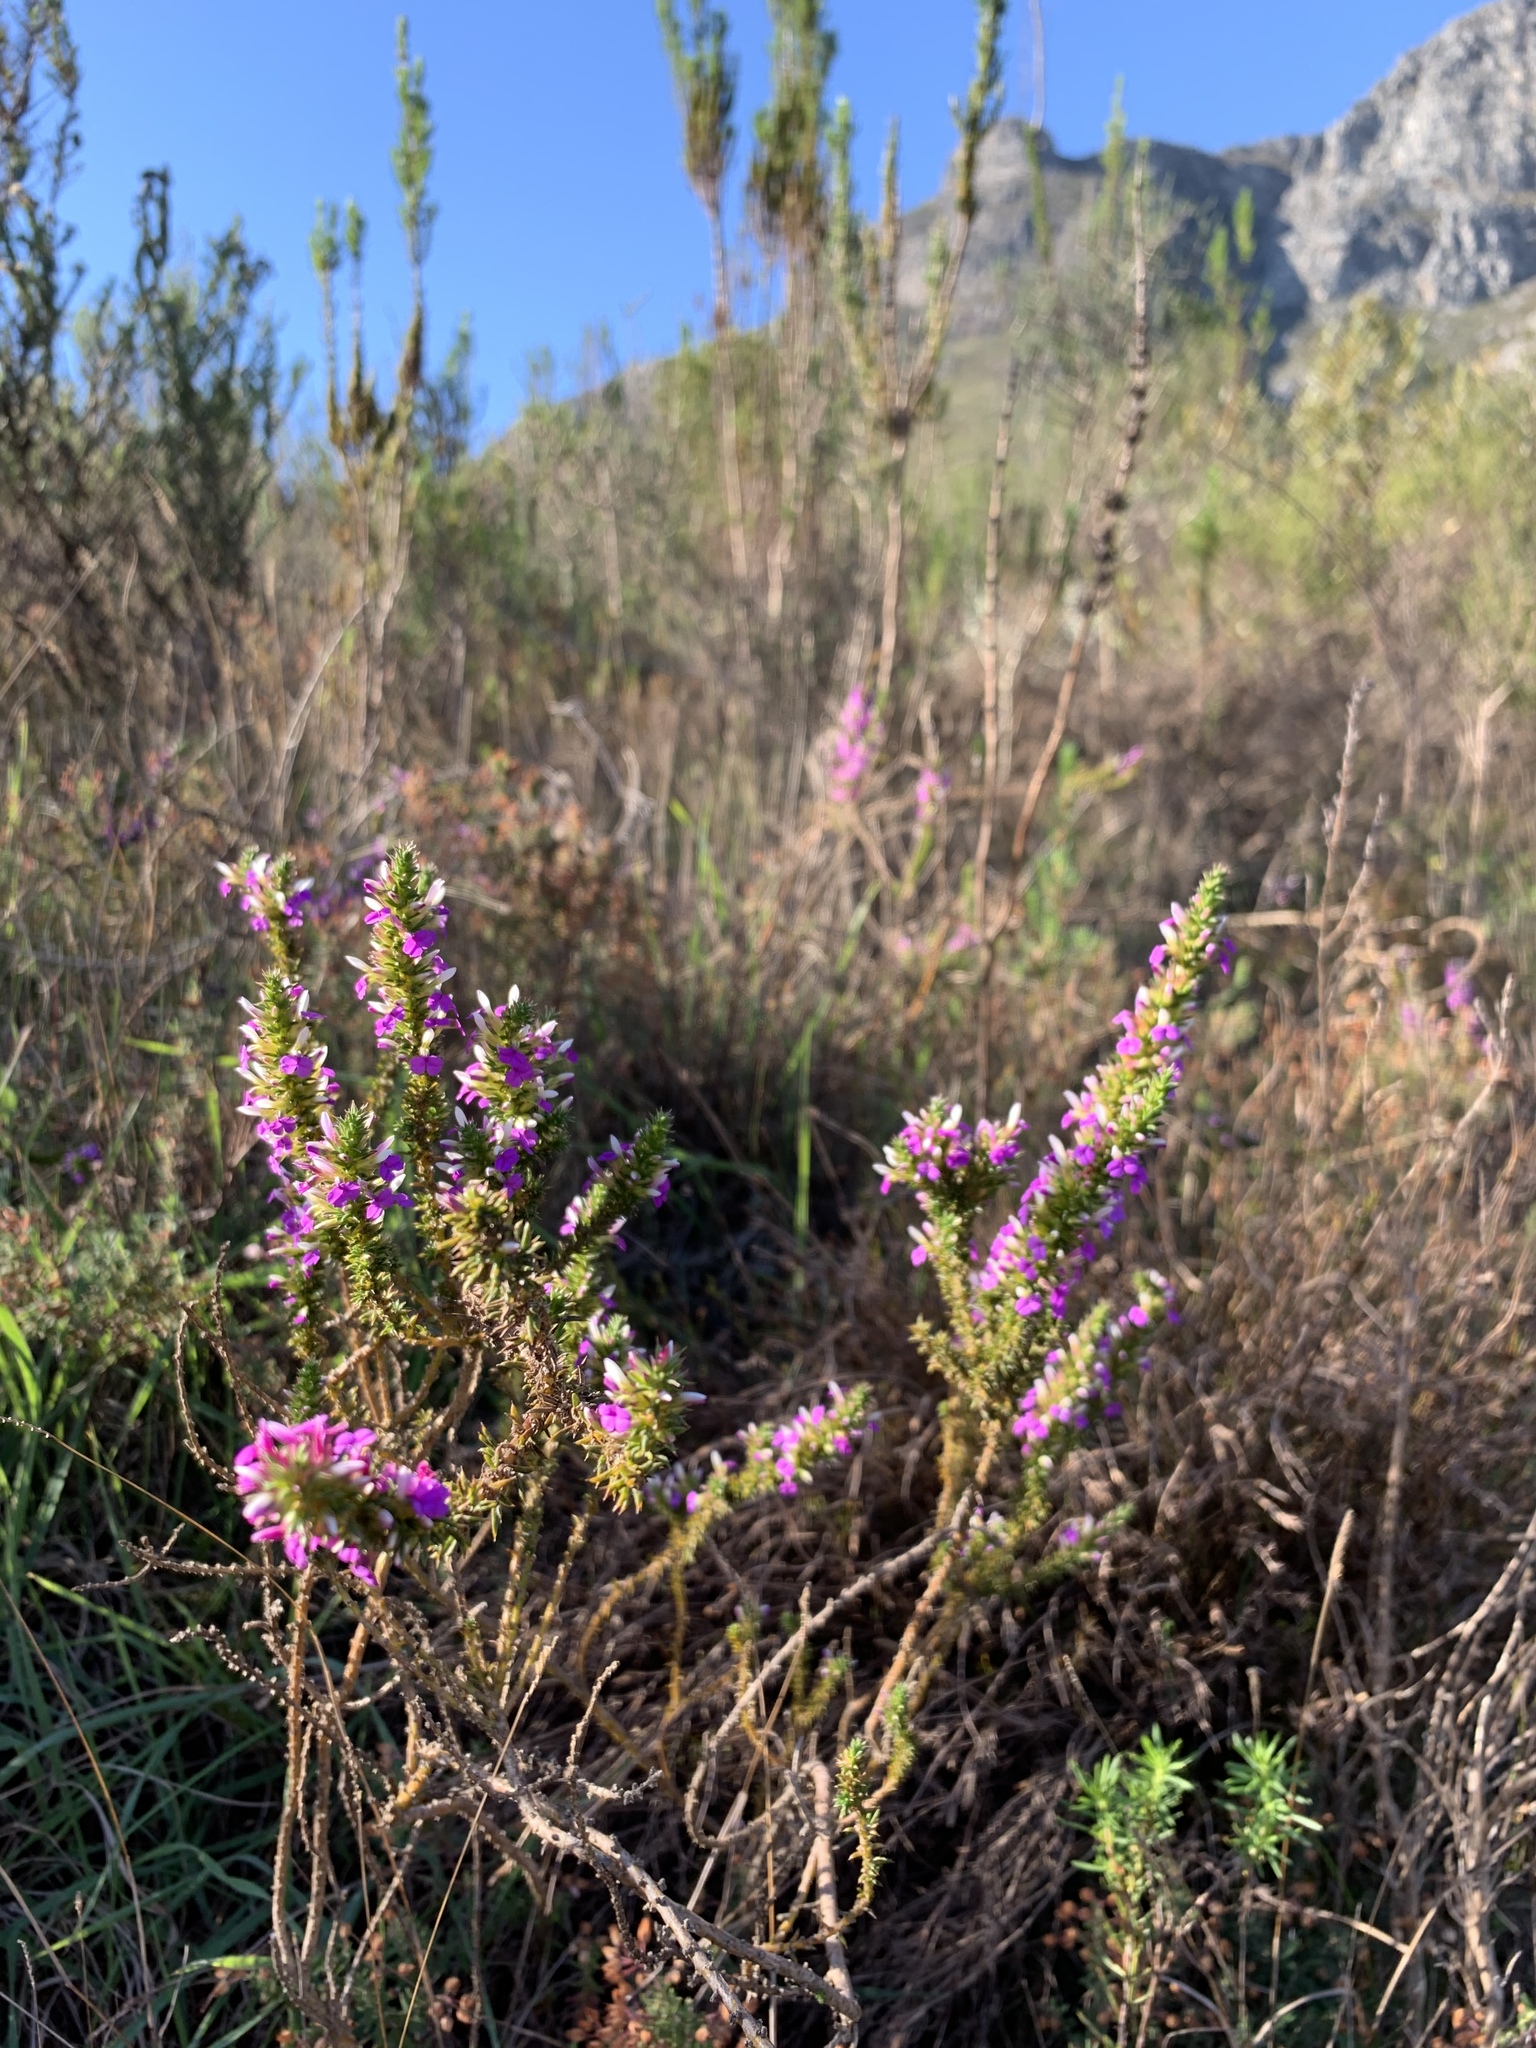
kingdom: Plantae
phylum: Tracheophyta
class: Magnoliopsida
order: Fabales
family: Polygalaceae
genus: Muraltia
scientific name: Muraltia heisteria
